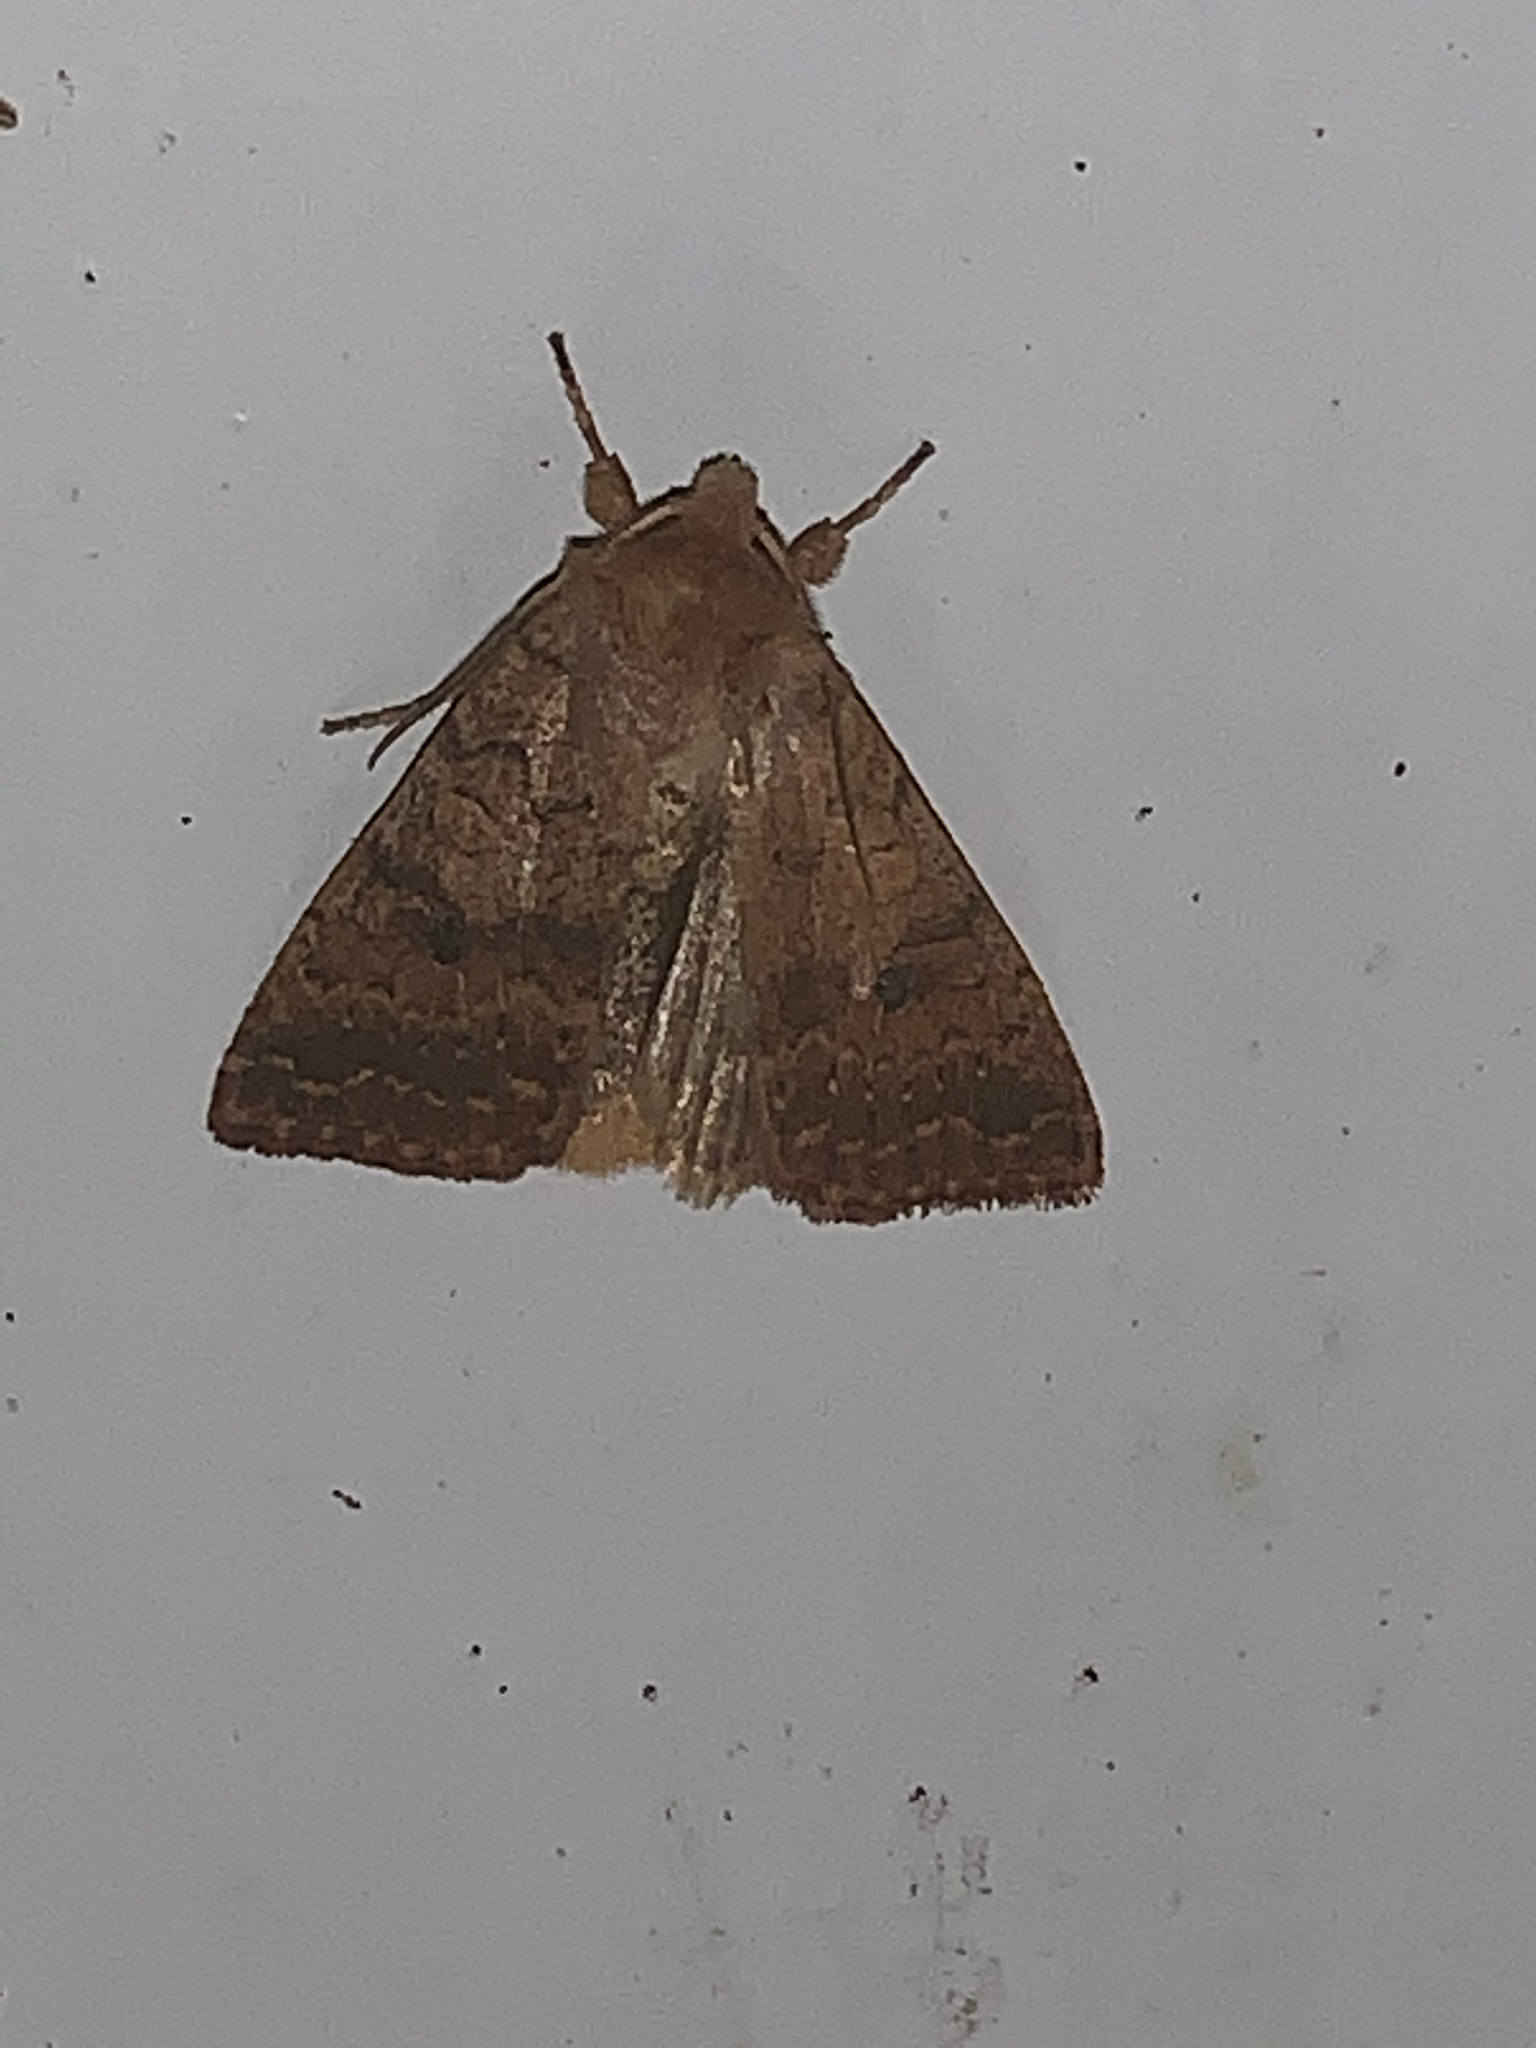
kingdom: Animalia
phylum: Arthropoda
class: Insecta
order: Lepidoptera
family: Noctuidae
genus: Agrochola
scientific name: Agrochola bicolorago
